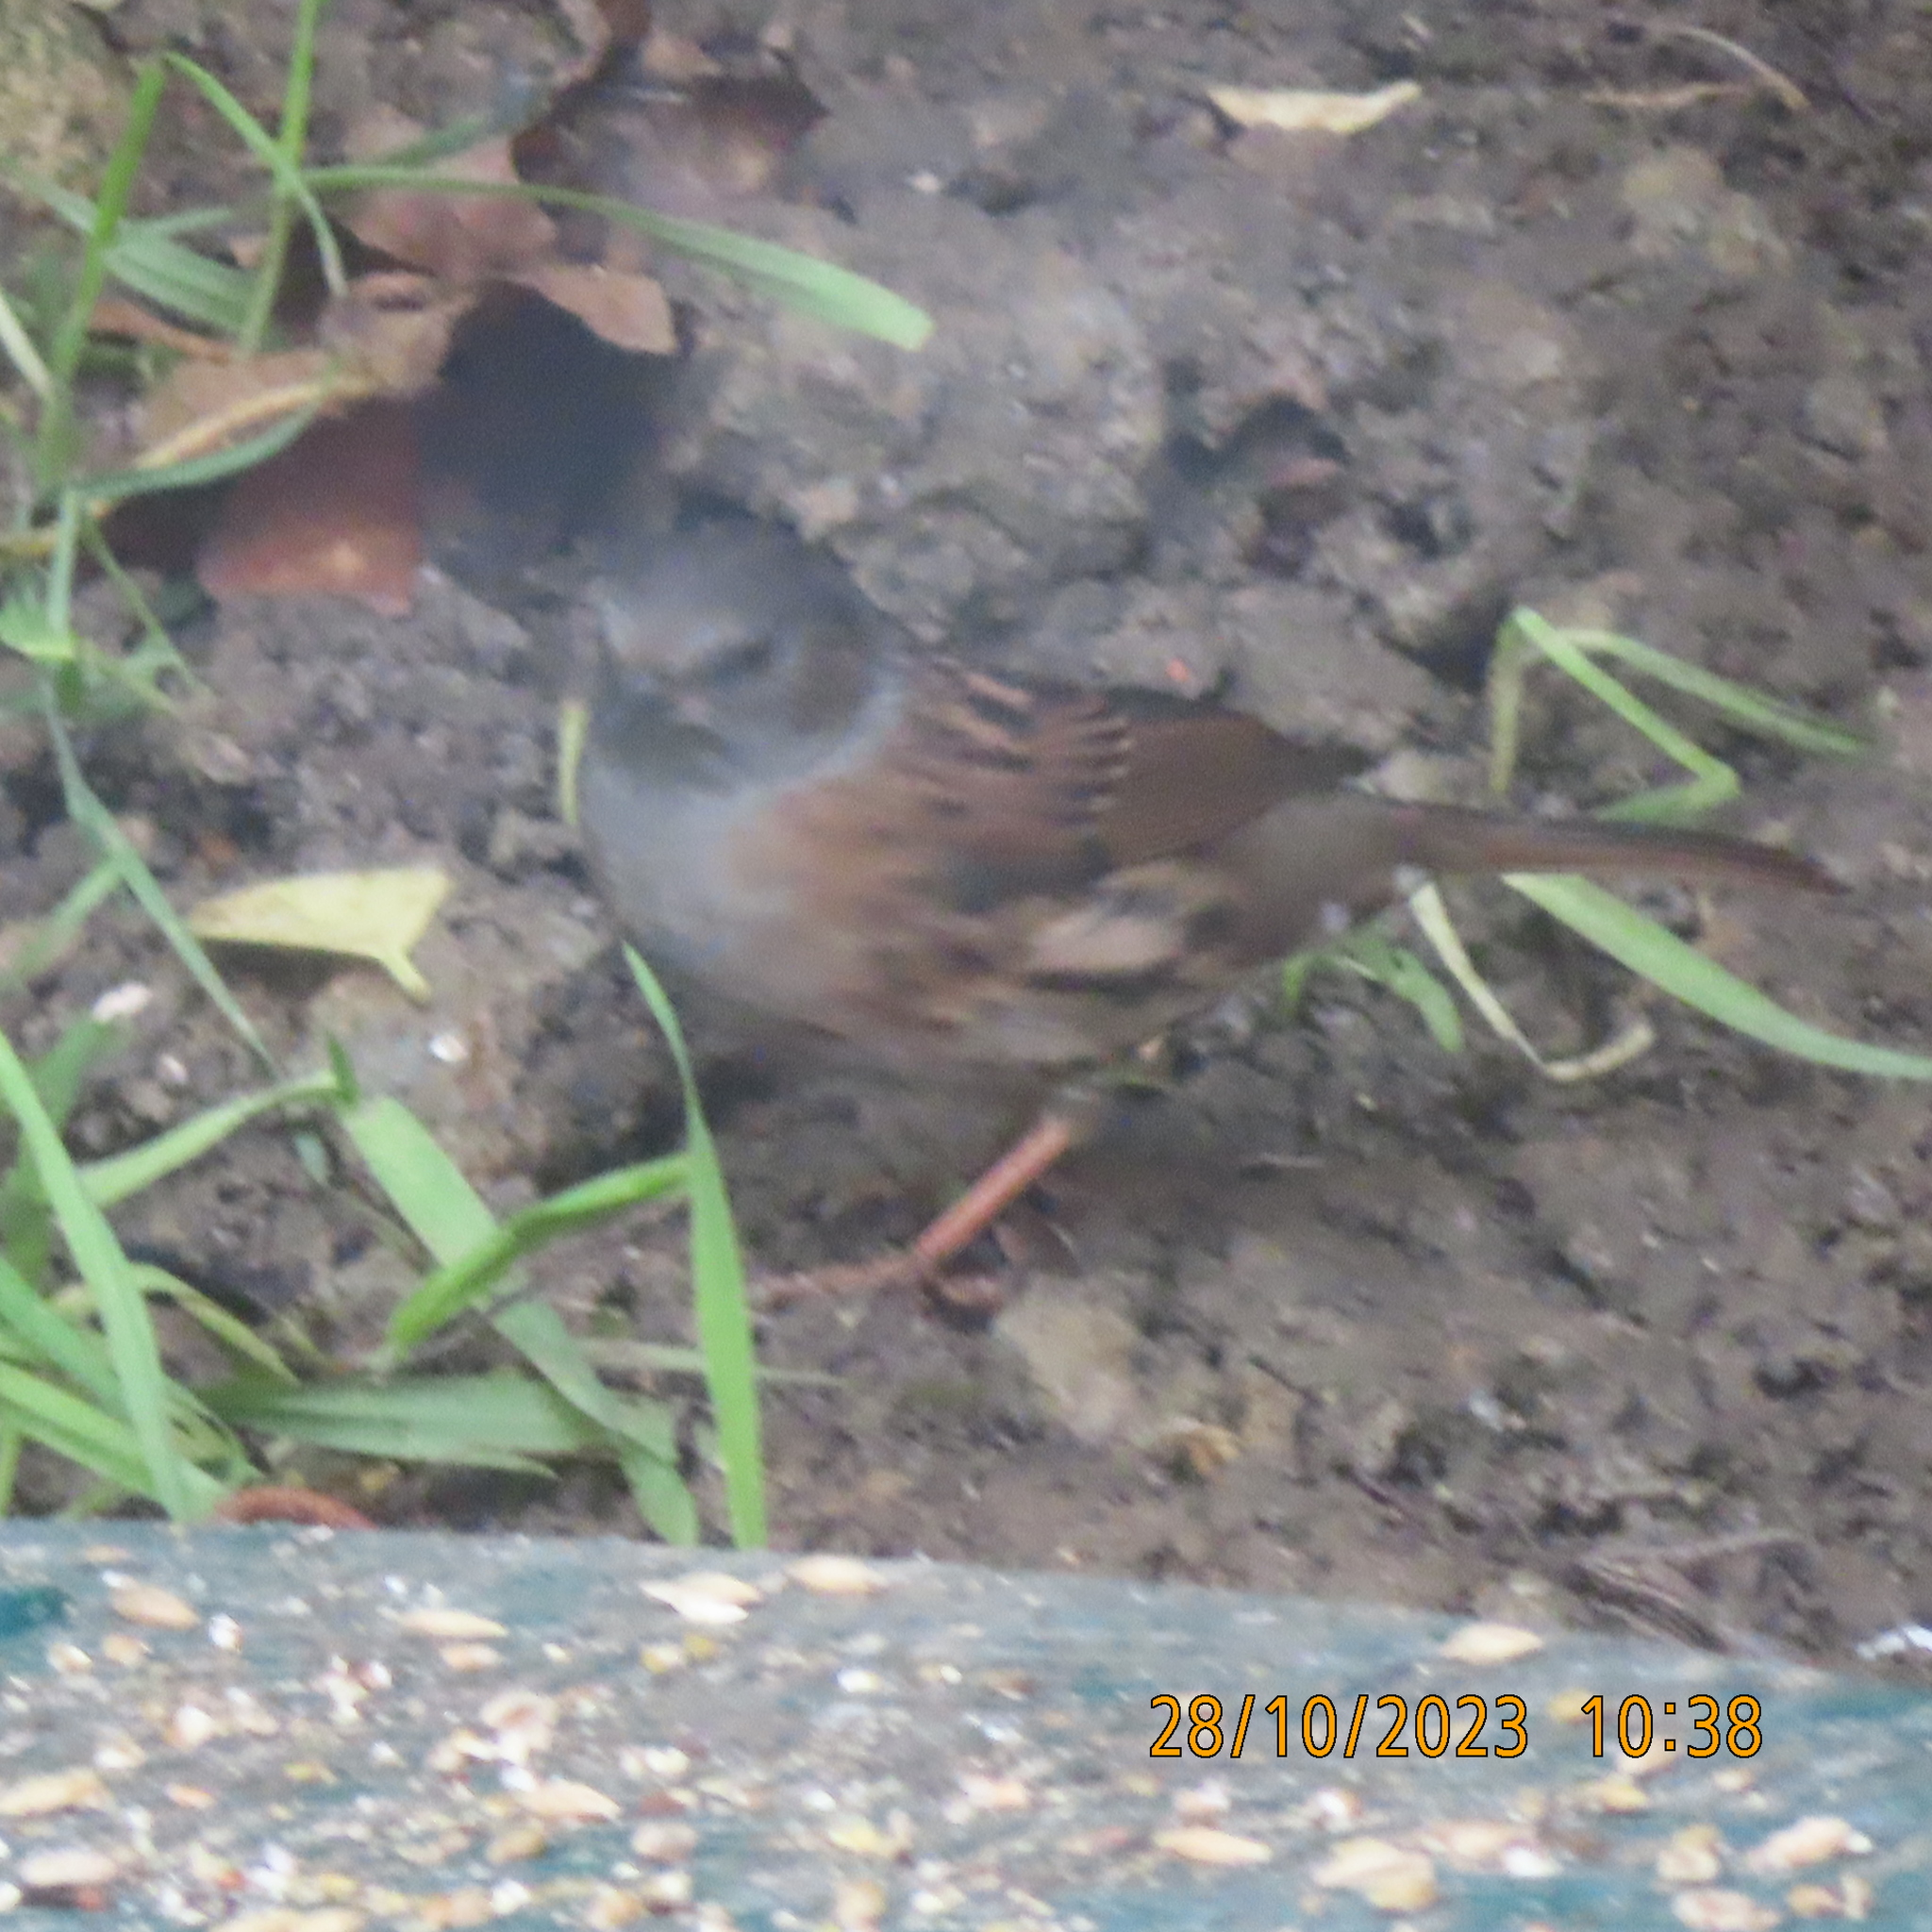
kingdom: Animalia
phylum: Chordata
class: Aves
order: Passeriformes
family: Prunellidae
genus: Prunella
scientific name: Prunella modularis
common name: Dunnock
